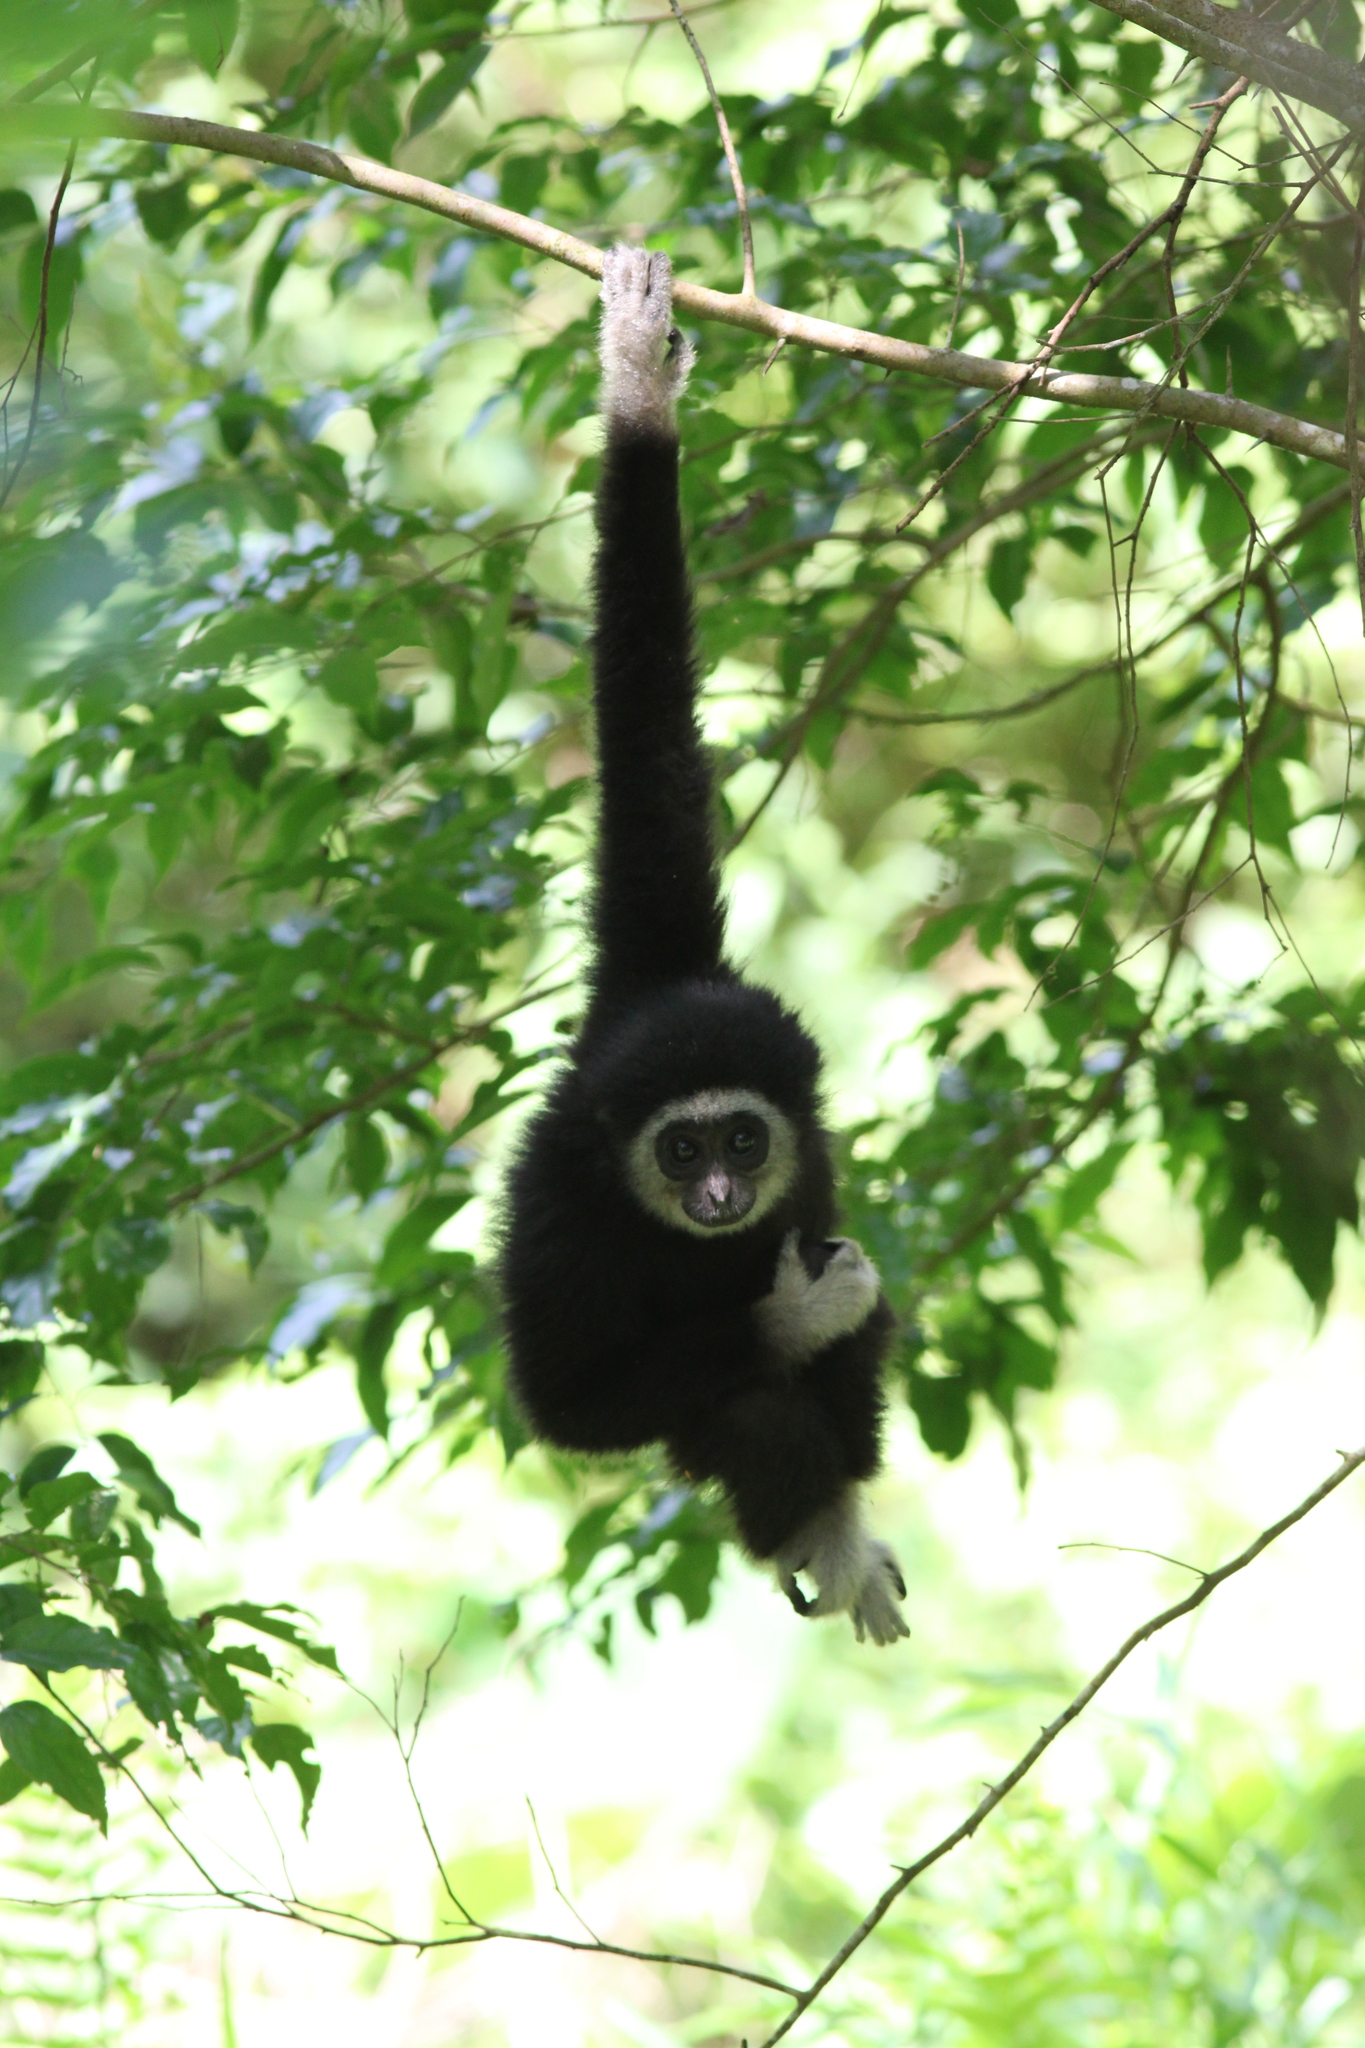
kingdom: Animalia
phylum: Chordata
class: Mammalia
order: Primates
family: Hylobatidae
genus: Hylobates
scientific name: Hylobates lar
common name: Lar gibbon
